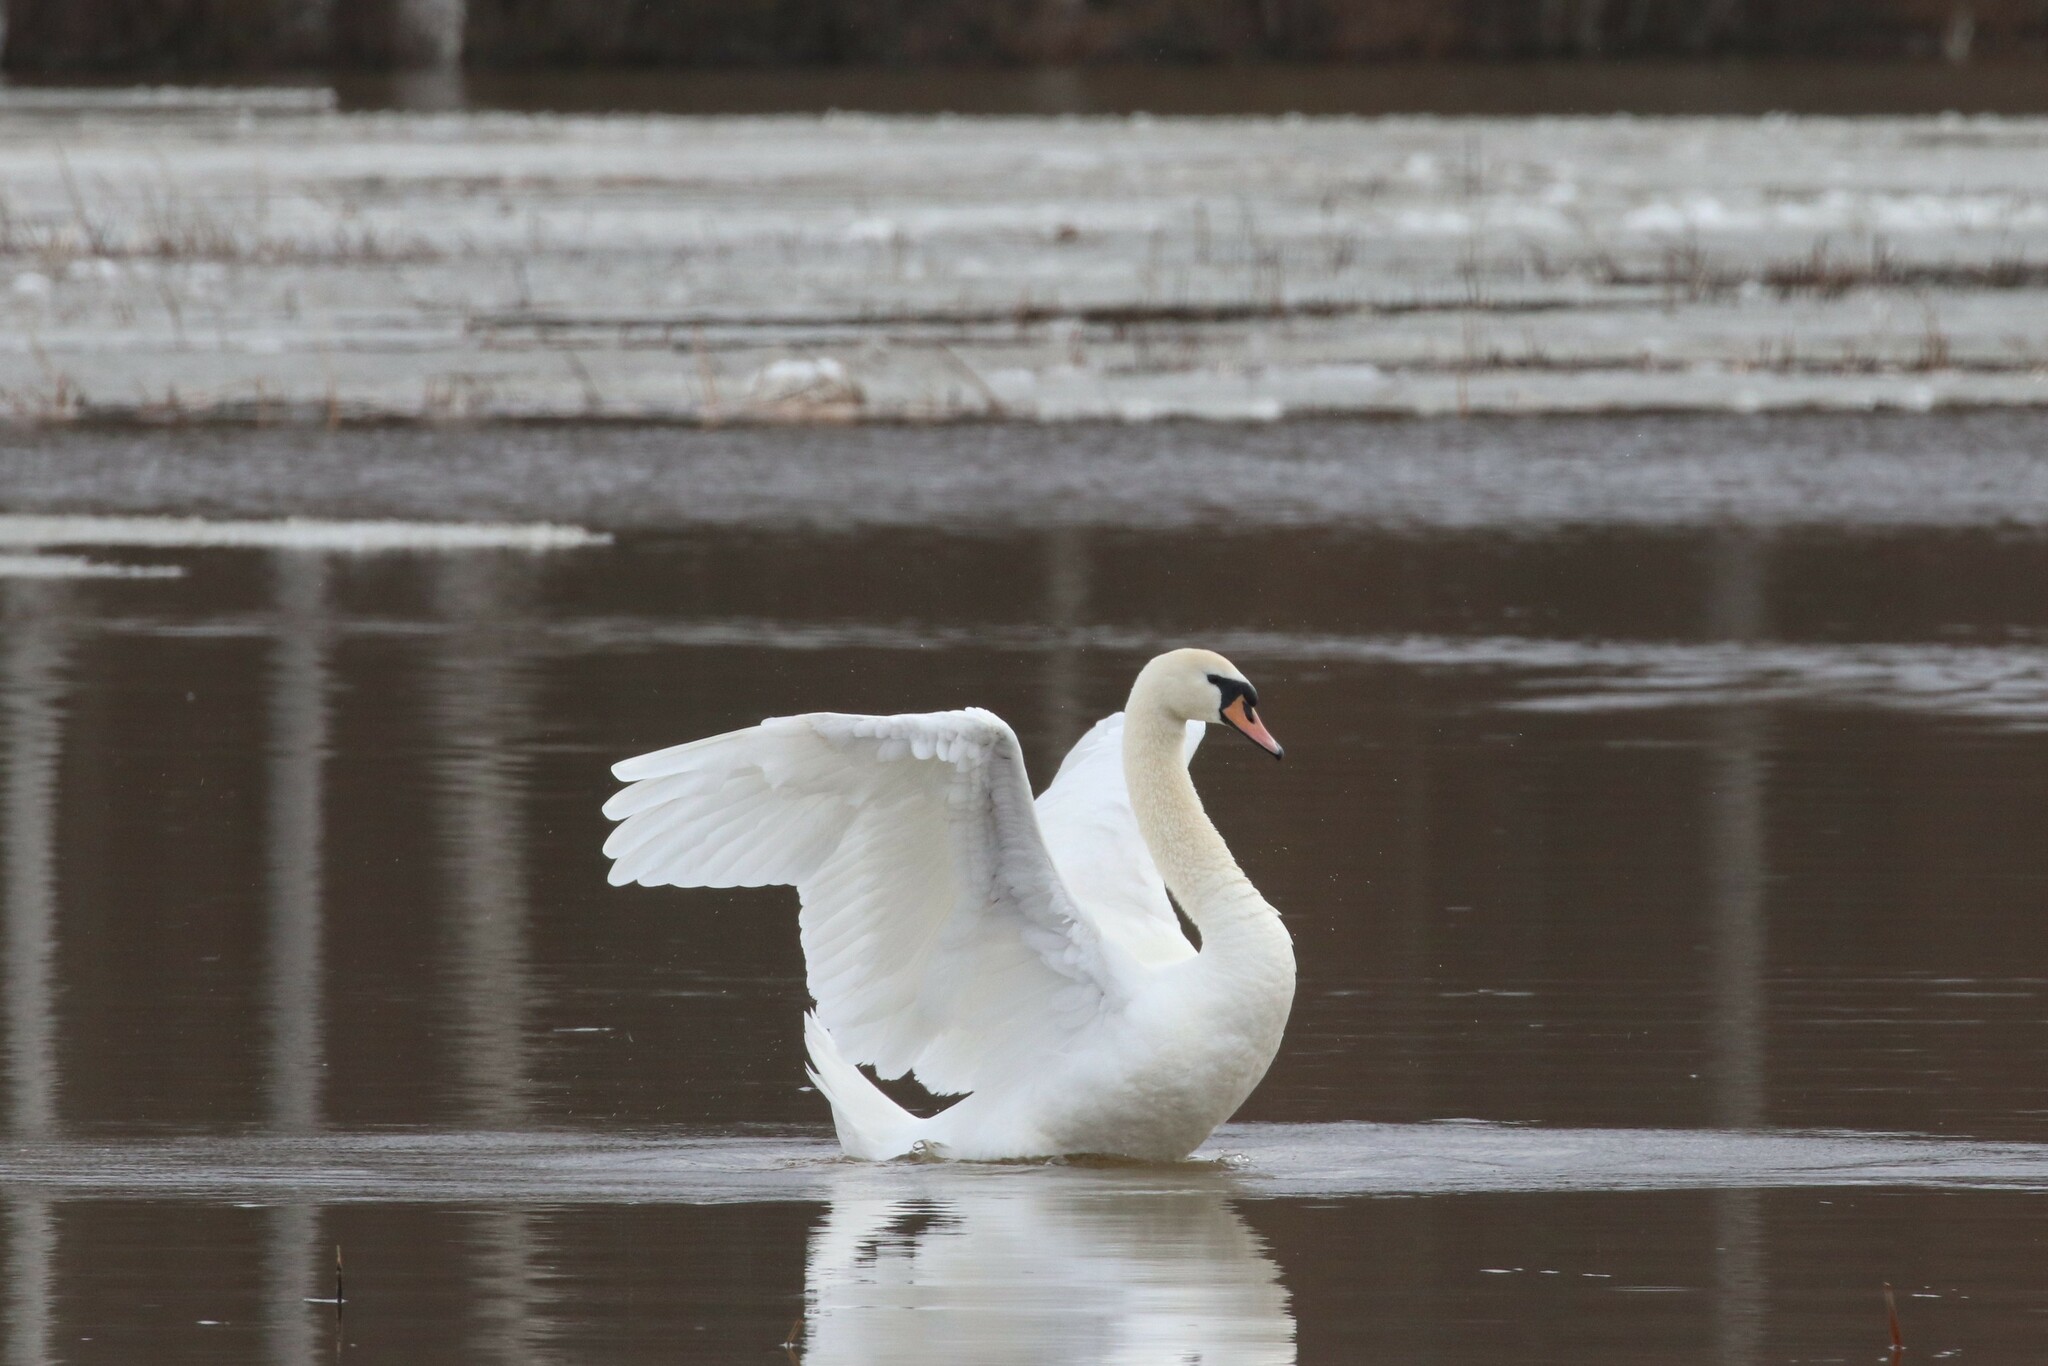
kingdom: Animalia
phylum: Chordata
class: Aves
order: Anseriformes
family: Anatidae
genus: Cygnus
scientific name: Cygnus olor
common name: Mute swan
